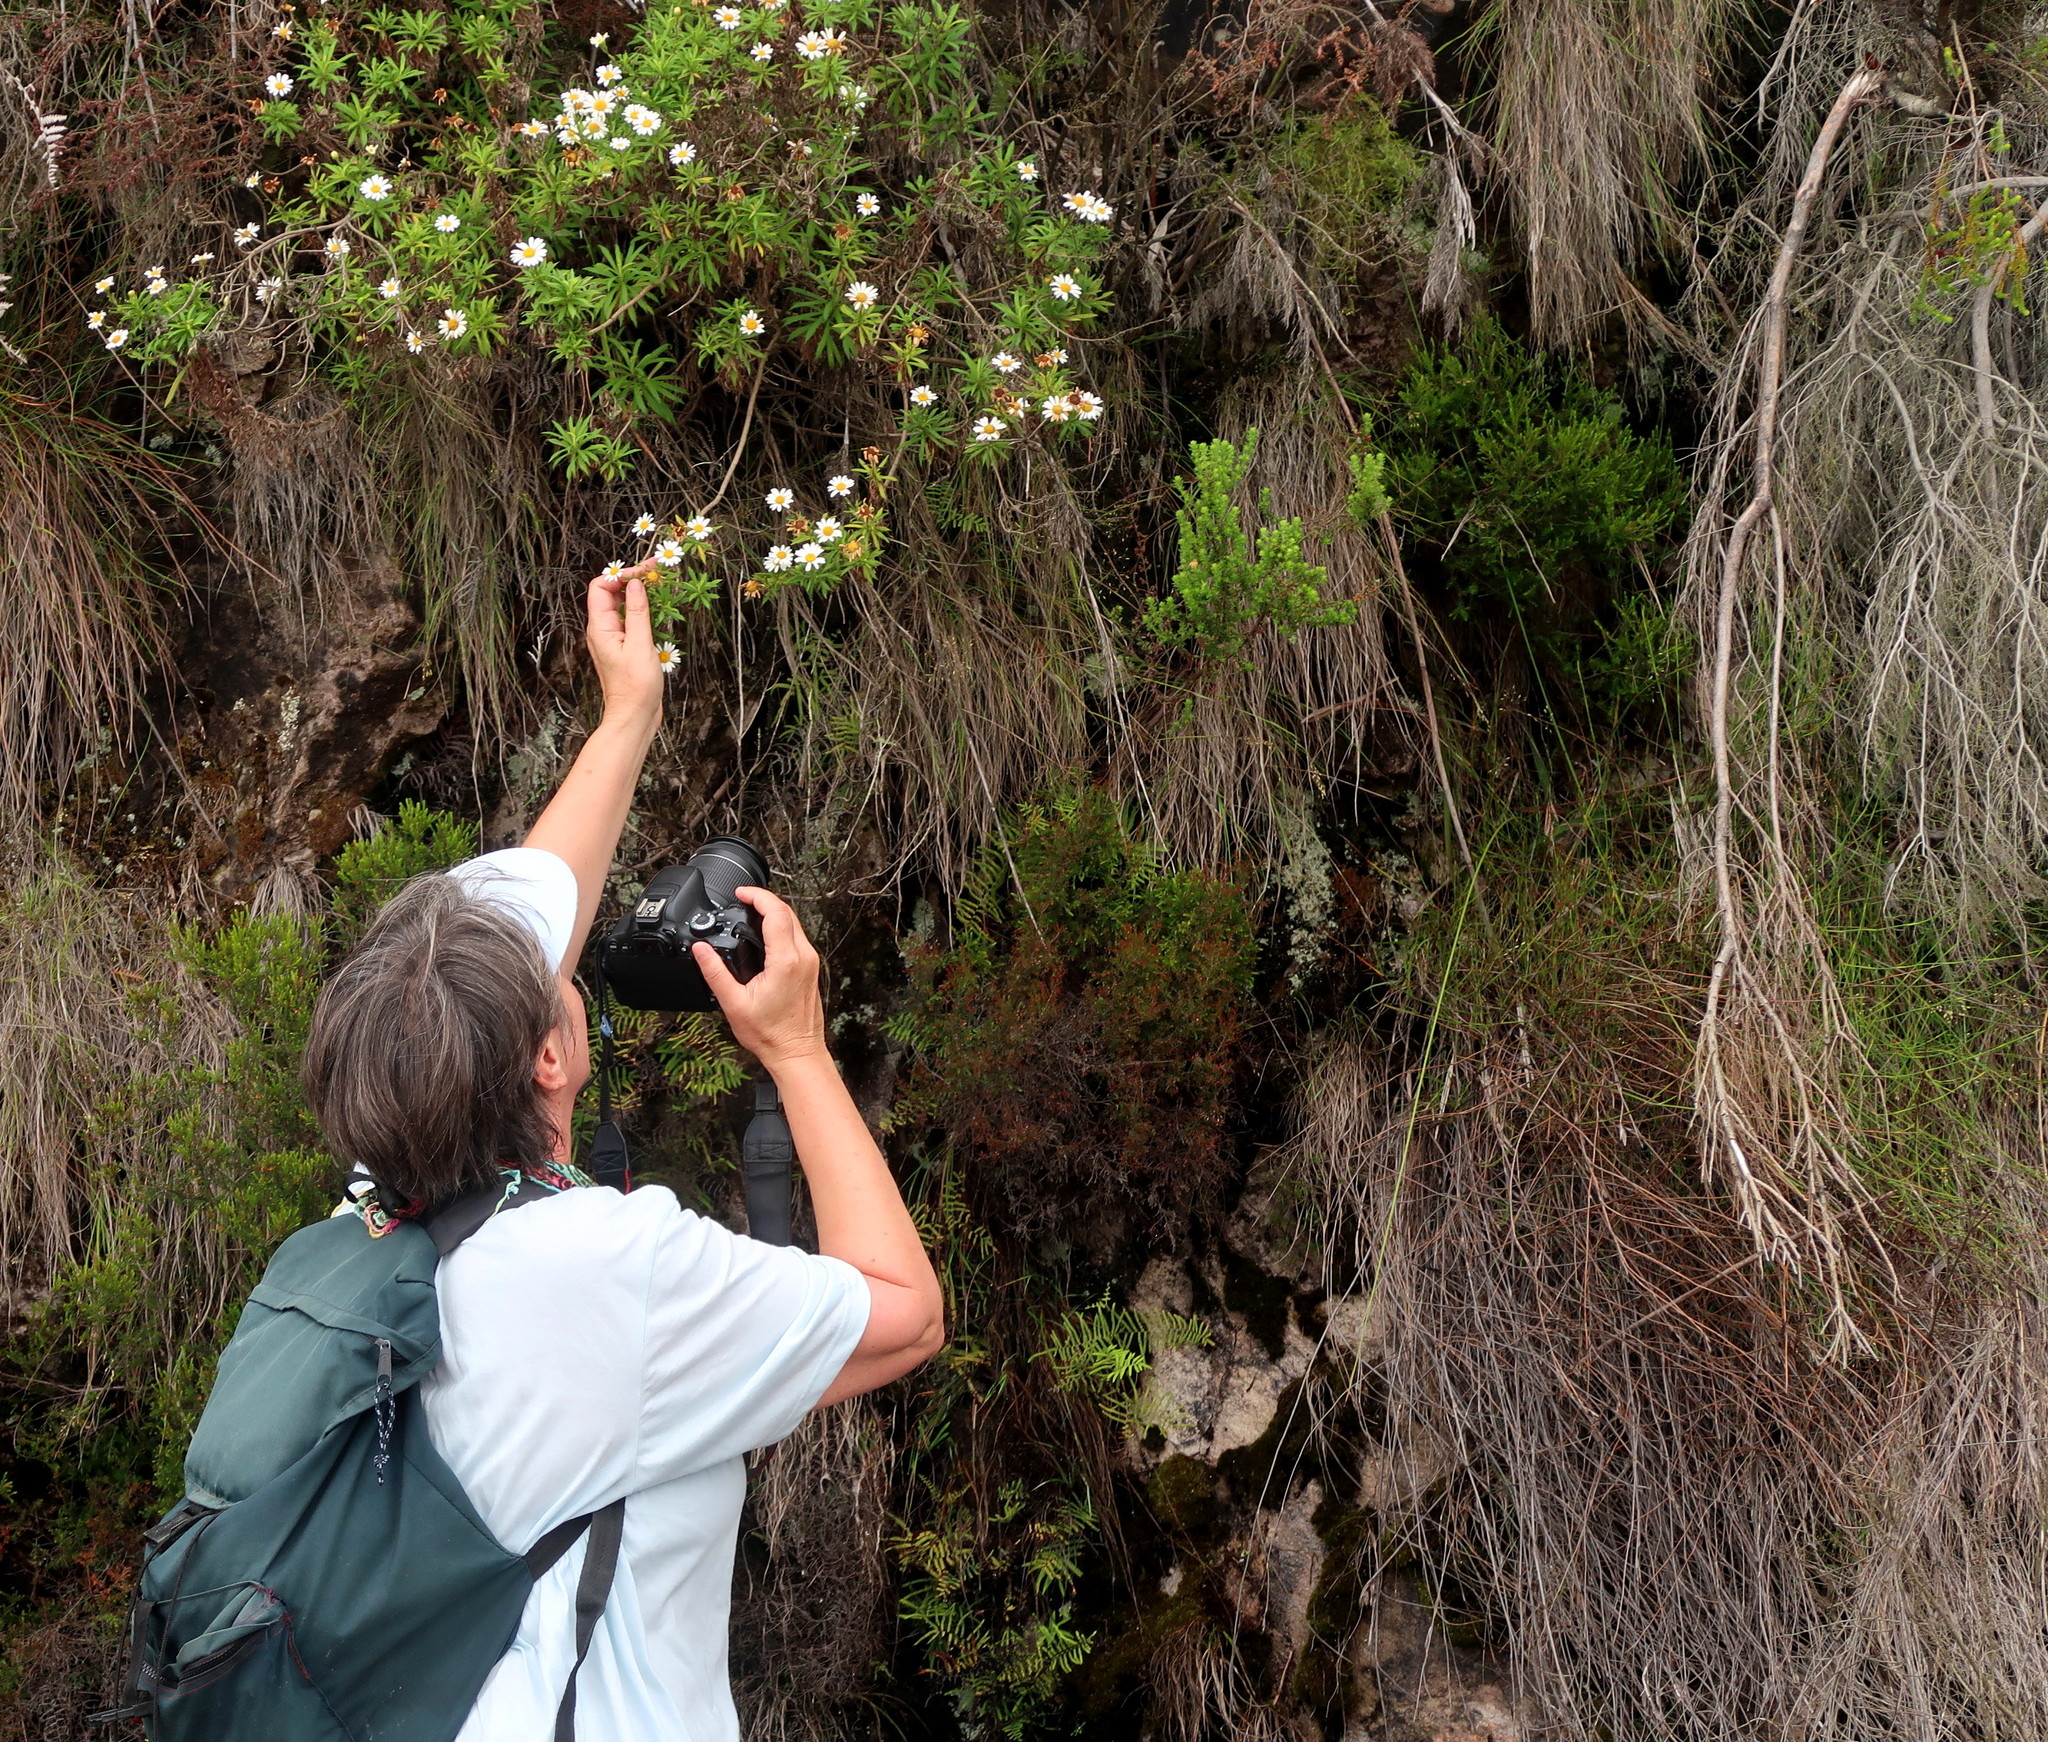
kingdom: Plantae
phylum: Tracheophyta
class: Magnoliopsida
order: Asterales
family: Asteraceae
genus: Osmitopsis
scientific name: Osmitopsis osmitoides
